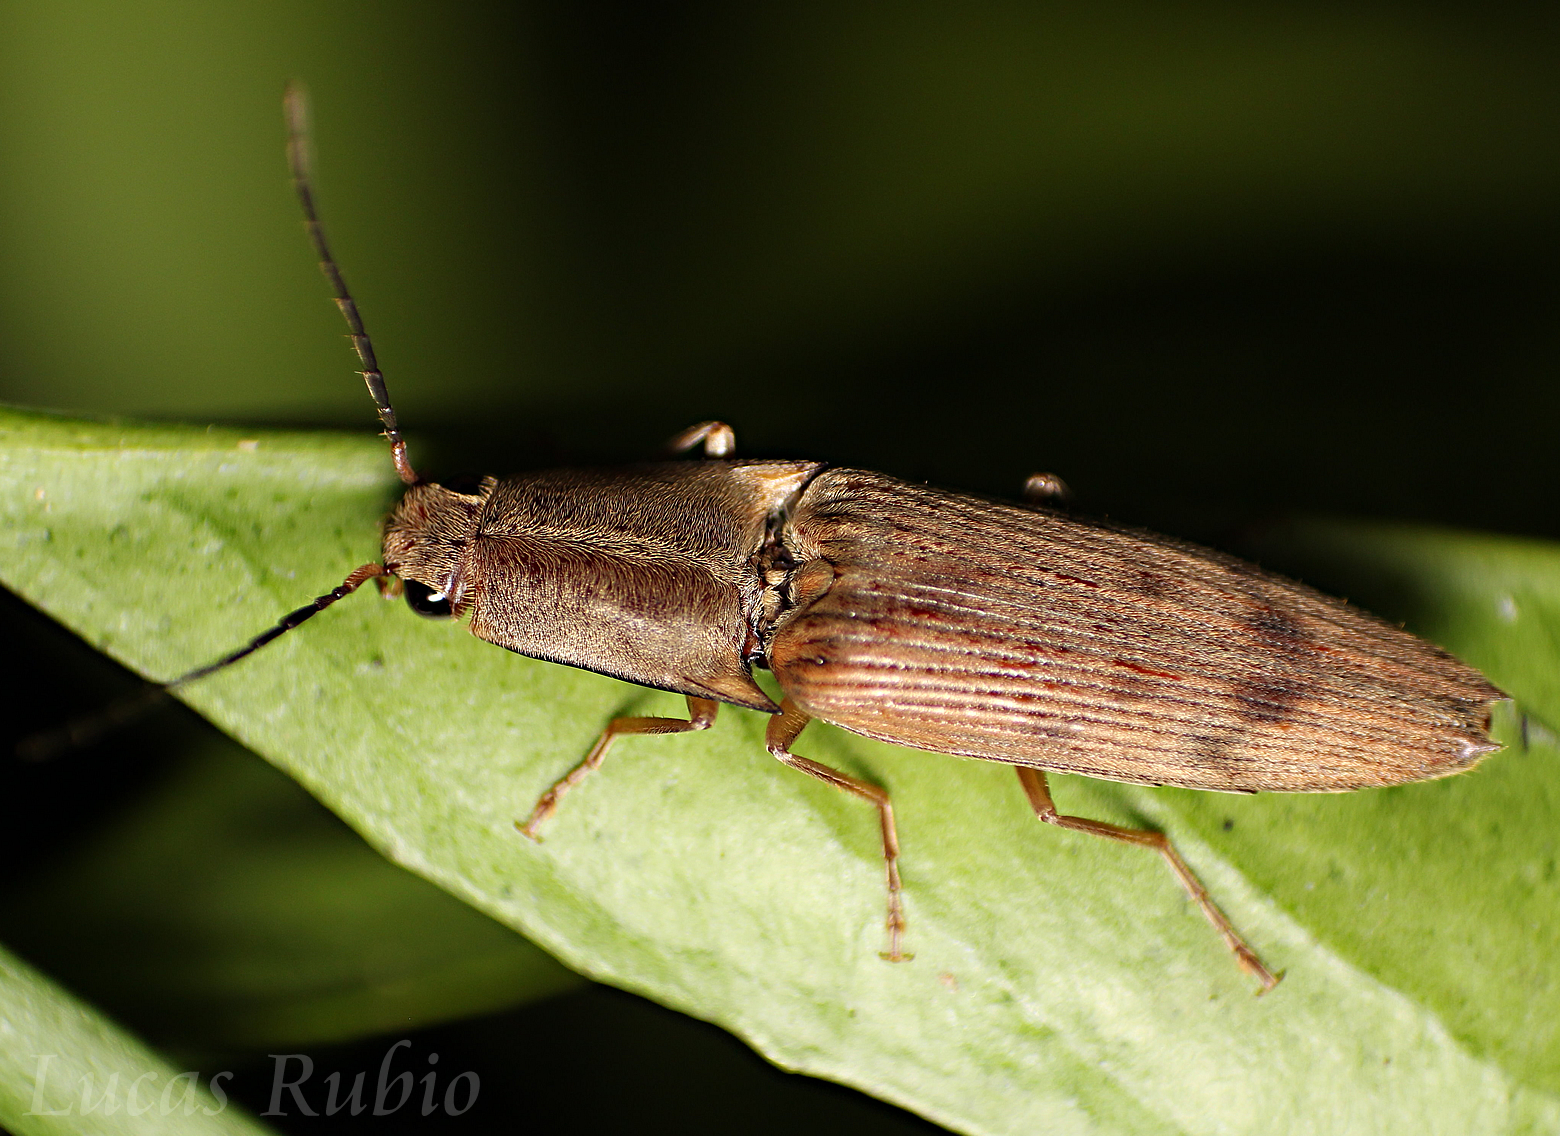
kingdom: Animalia
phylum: Arthropoda
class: Insecta
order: Coleoptera
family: Elateridae
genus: Monocrepidius
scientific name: Monocrepidius
